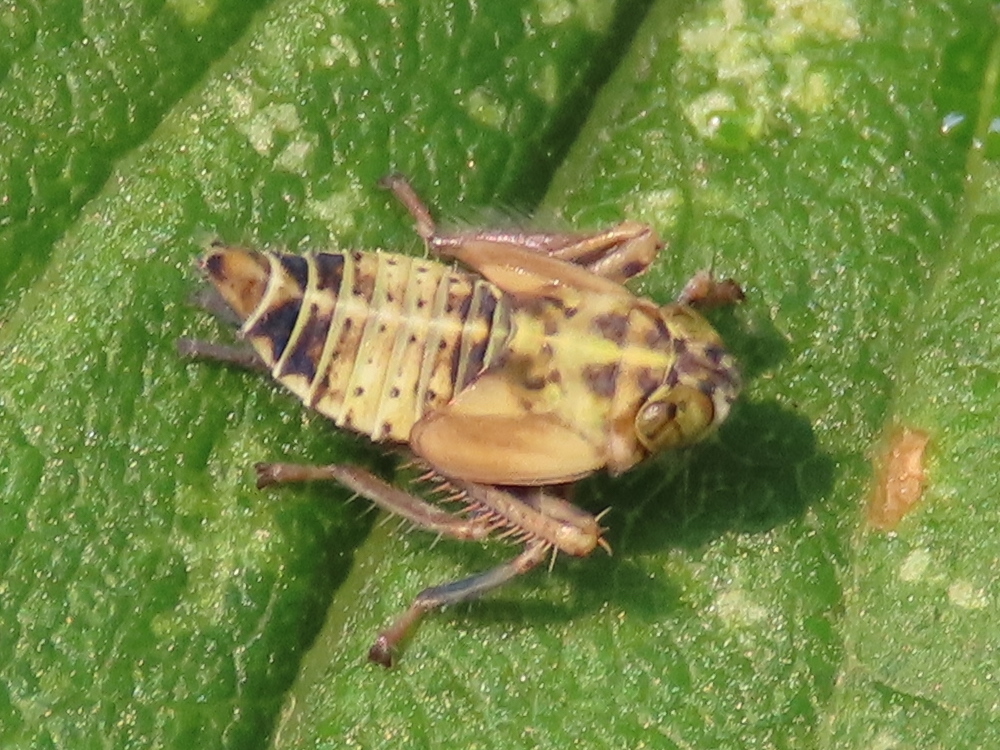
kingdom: Animalia
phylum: Arthropoda
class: Insecta
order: Hemiptera
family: Cicadellidae
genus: Jikradia
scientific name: Jikradia olitoria
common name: Coppery leafhopper
